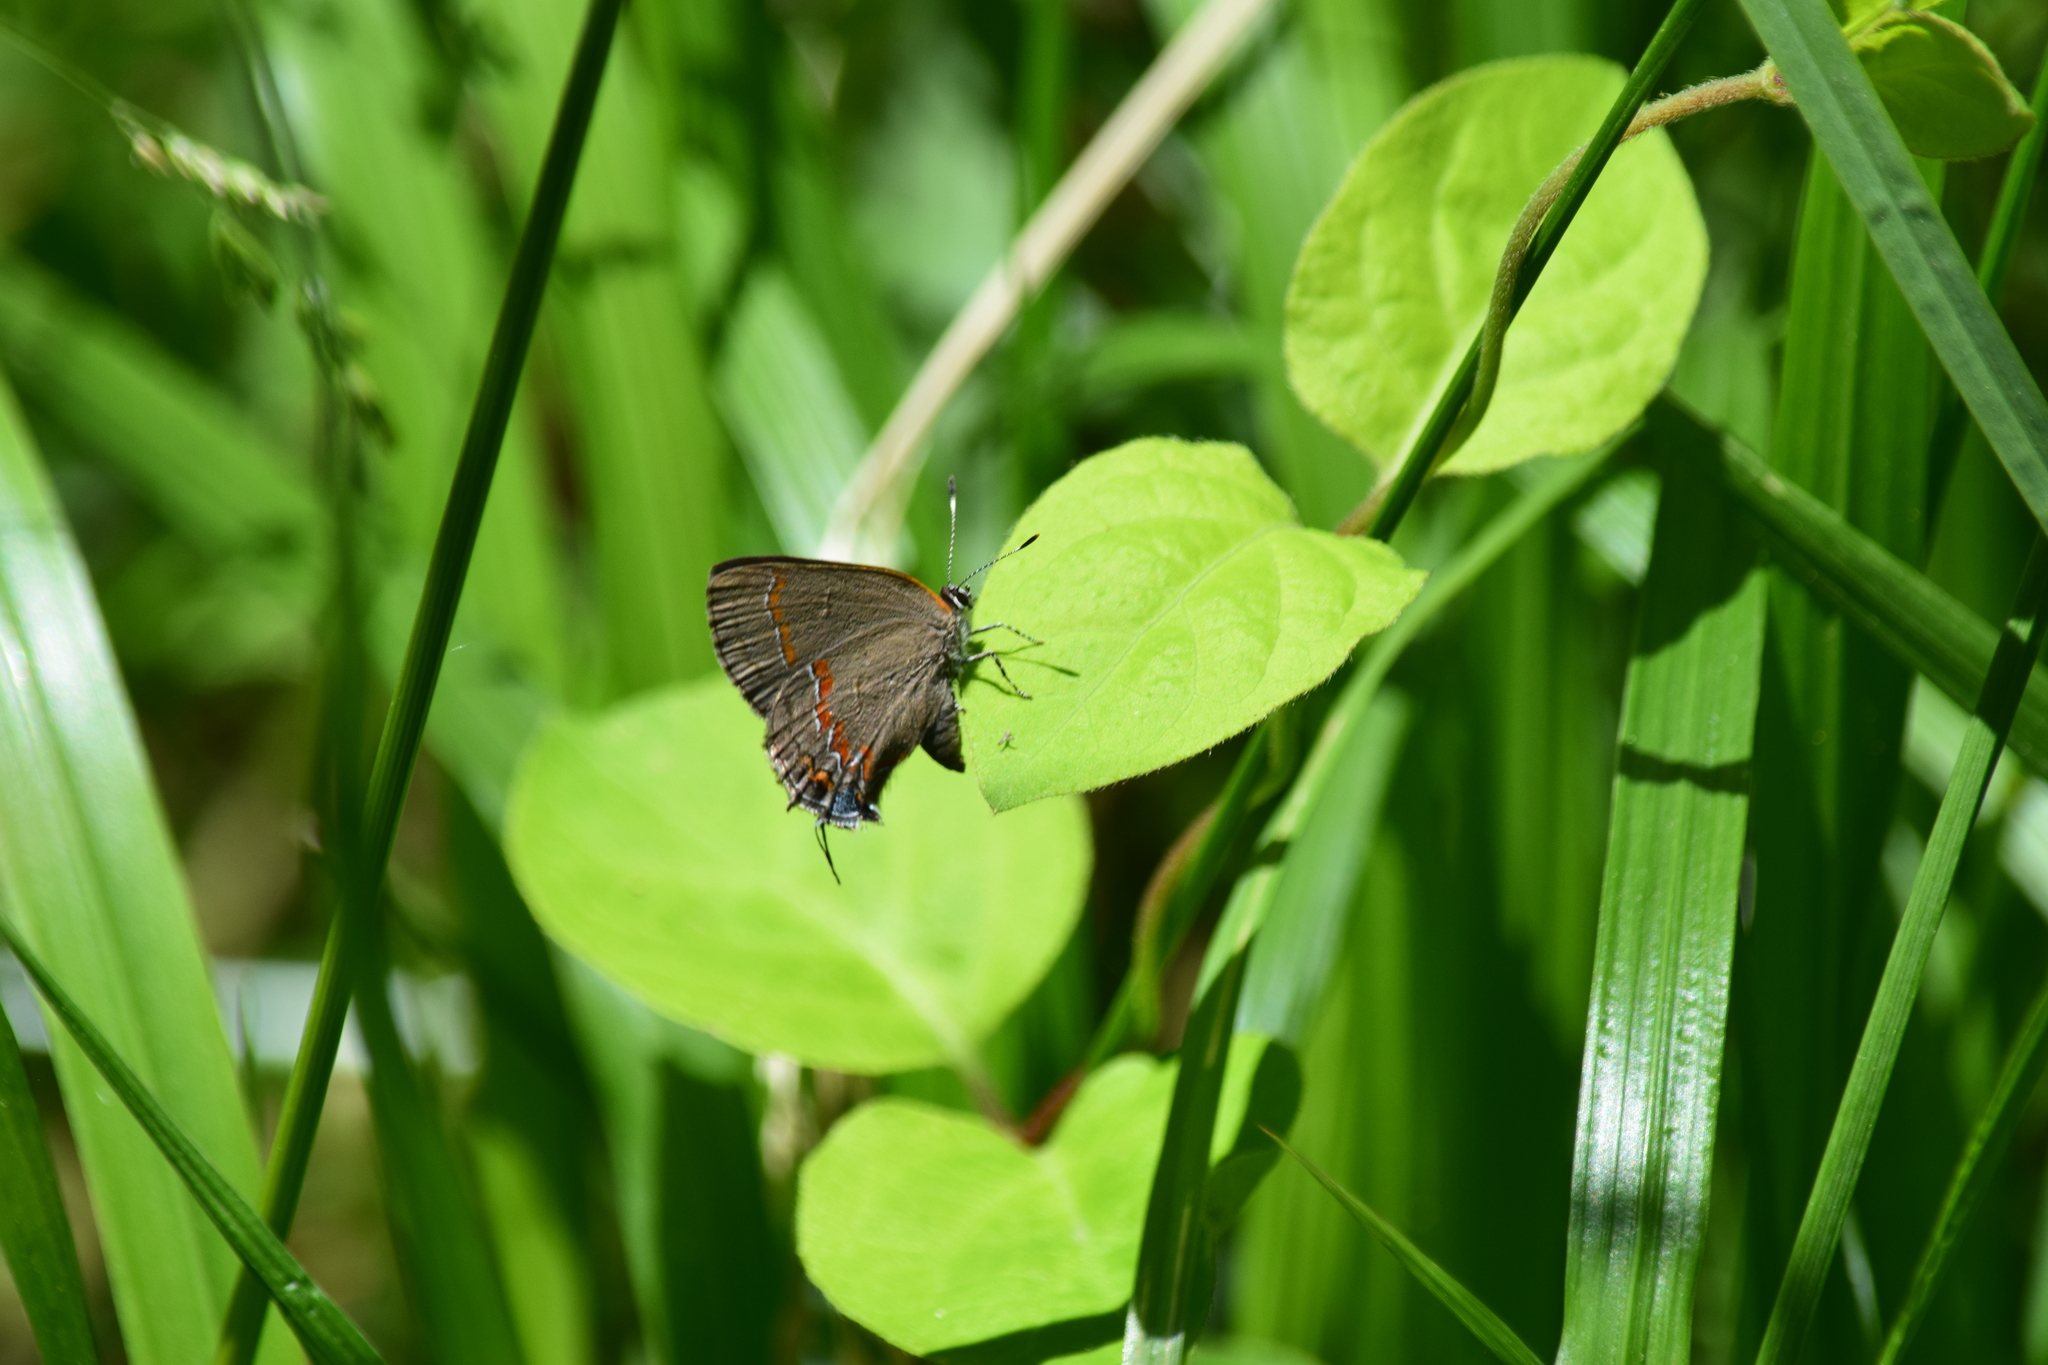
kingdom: Animalia
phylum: Arthropoda
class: Insecta
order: Lepidoptera
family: Lycaenidae
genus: Calycopis
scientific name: Calycopis cecrops
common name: Red-banded hairstreak
